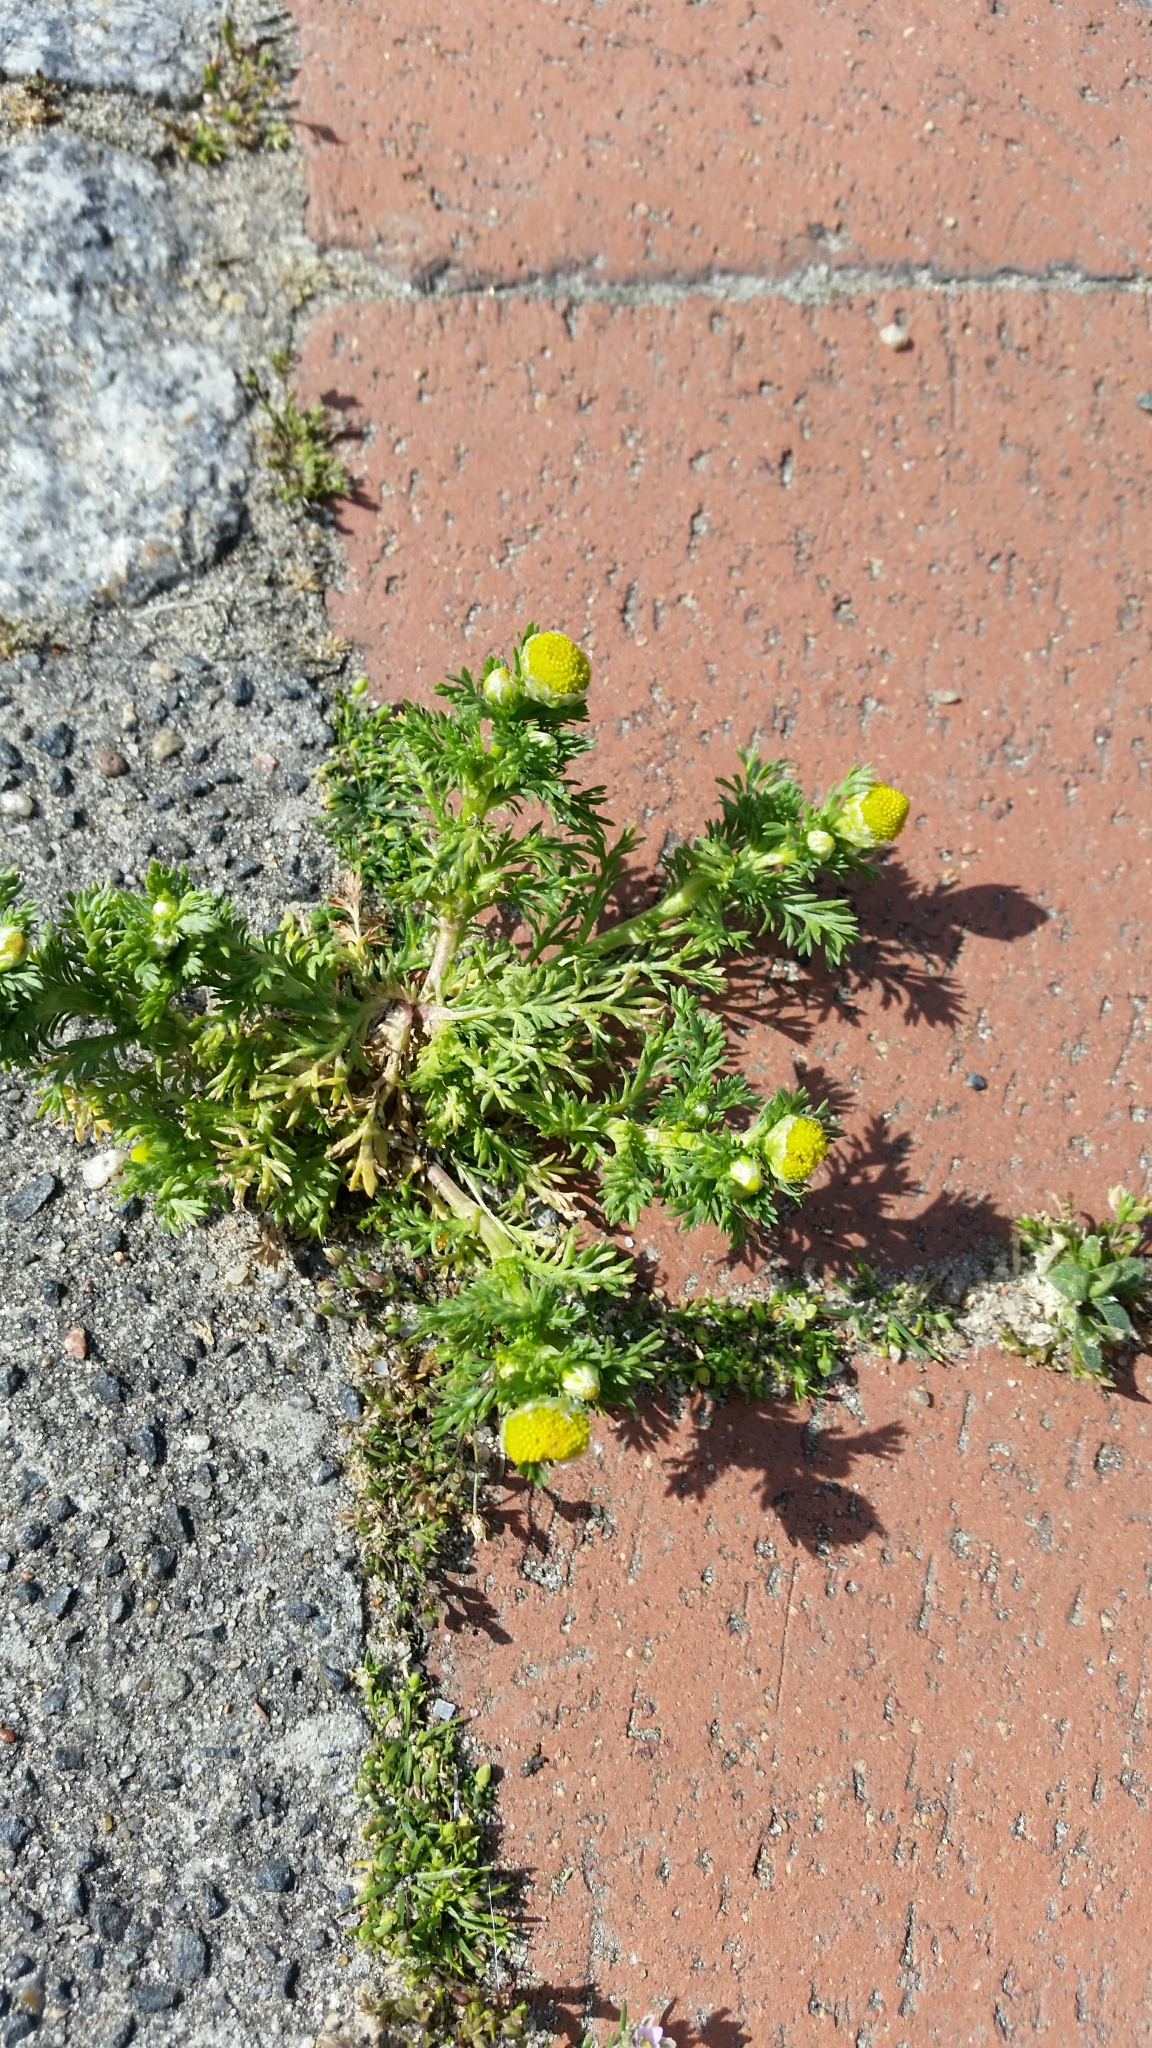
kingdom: Plantae
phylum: Tracheophyta
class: Magnoliopsida
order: Asterales
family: Asteraceae
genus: Matricaria
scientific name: Matricaria discoidea
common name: Disc mayweed
